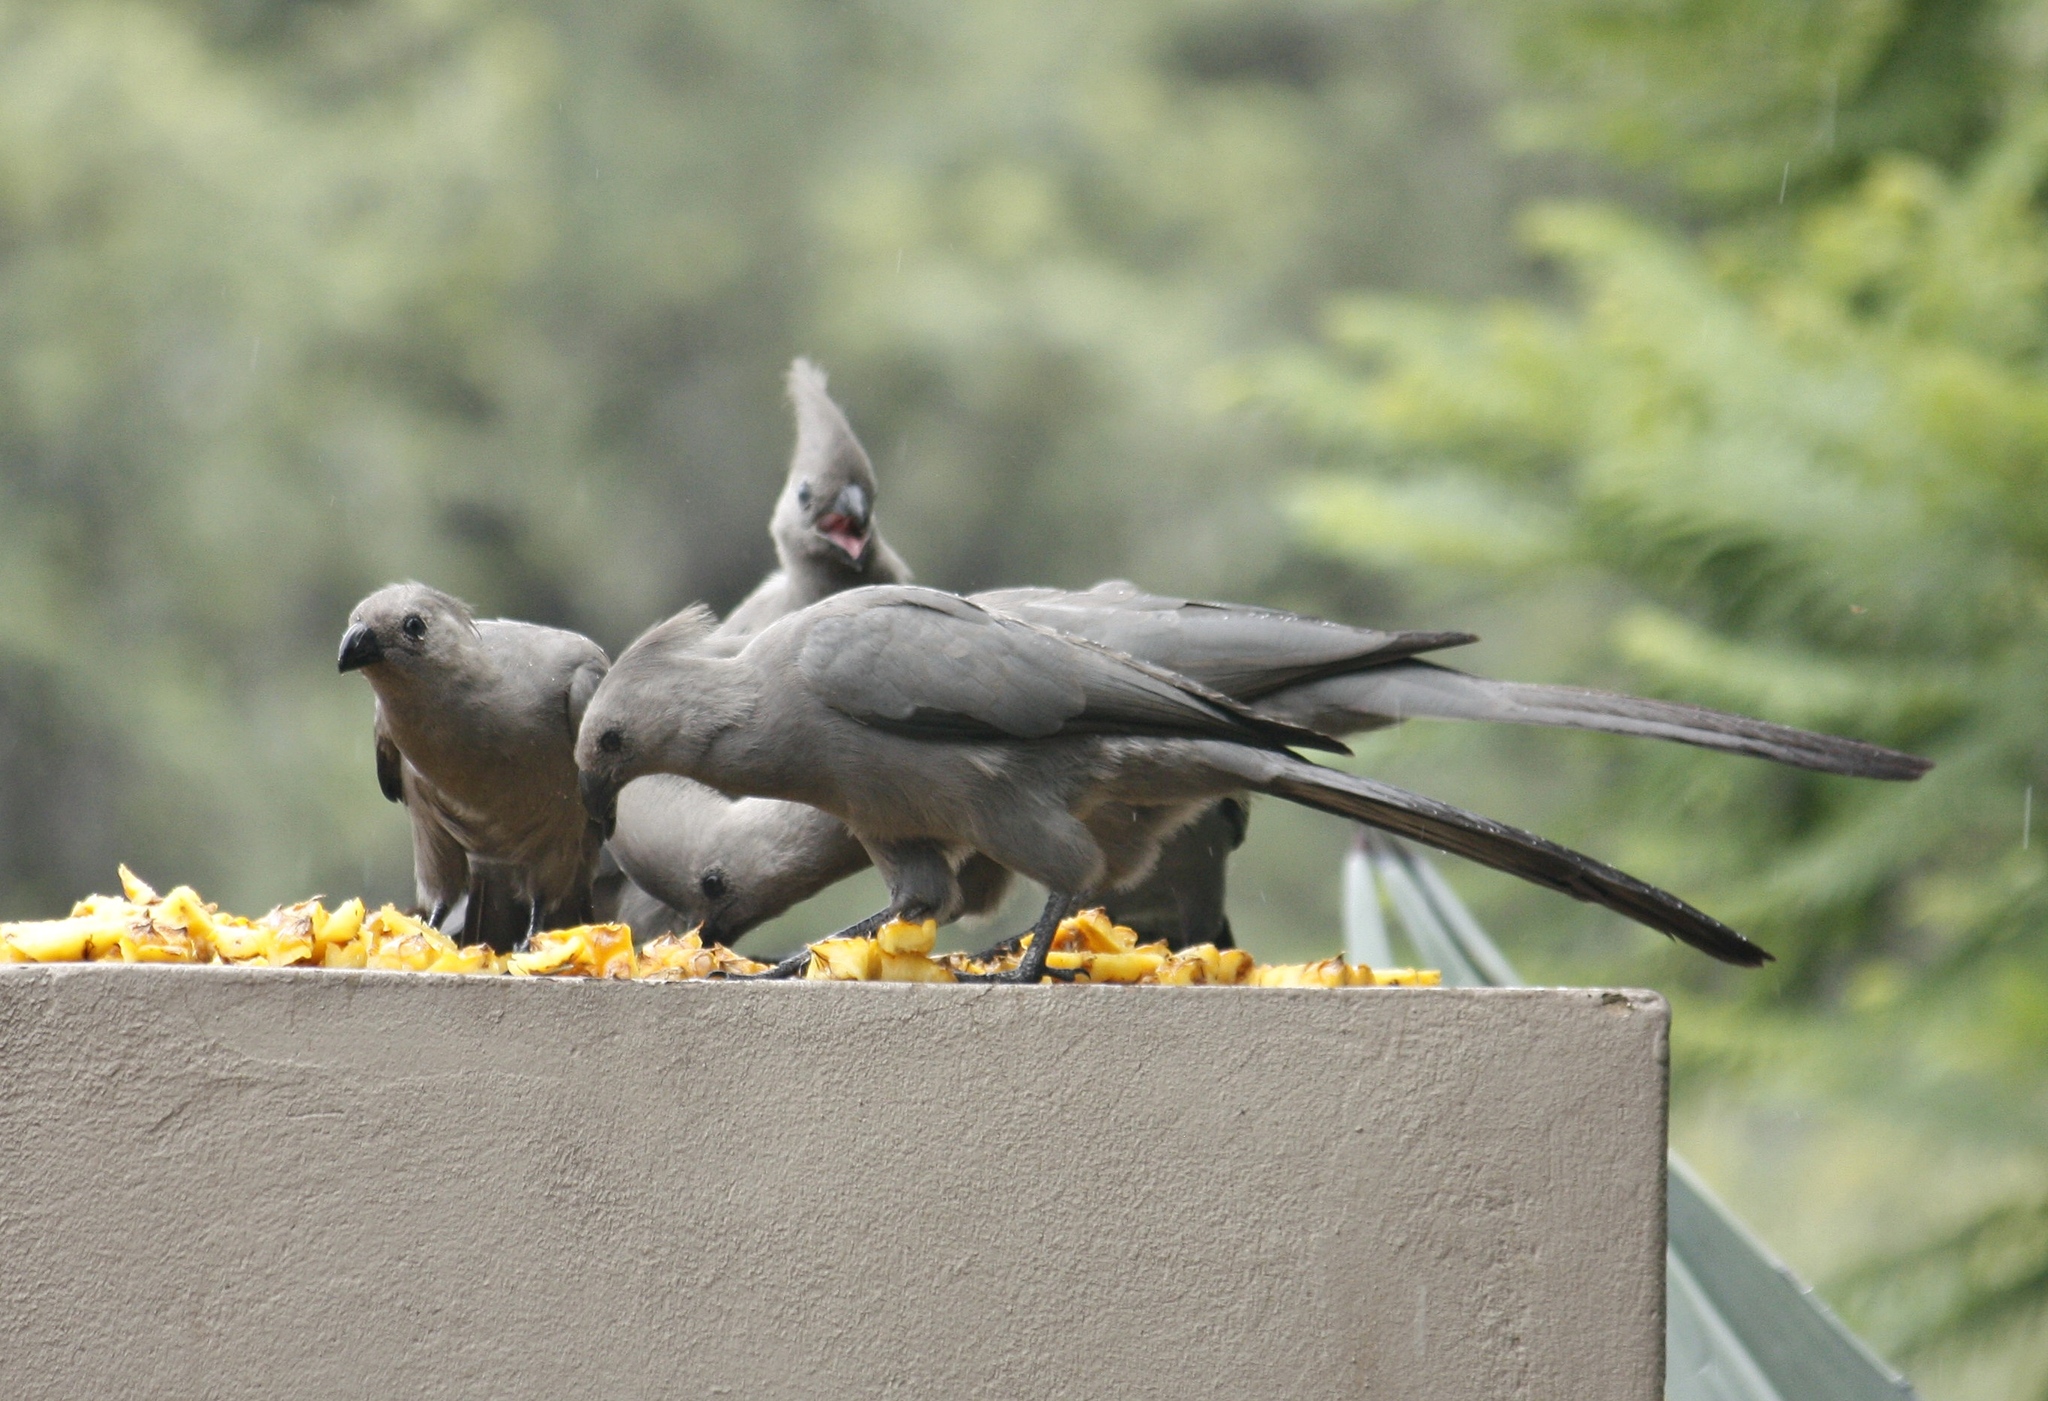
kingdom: Animalia
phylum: Chordata
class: Aves
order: Musophagiformes
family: Musophagidae
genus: Corythaixoides
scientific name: Corythaixoides concolor
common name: Grey go-away-bird
